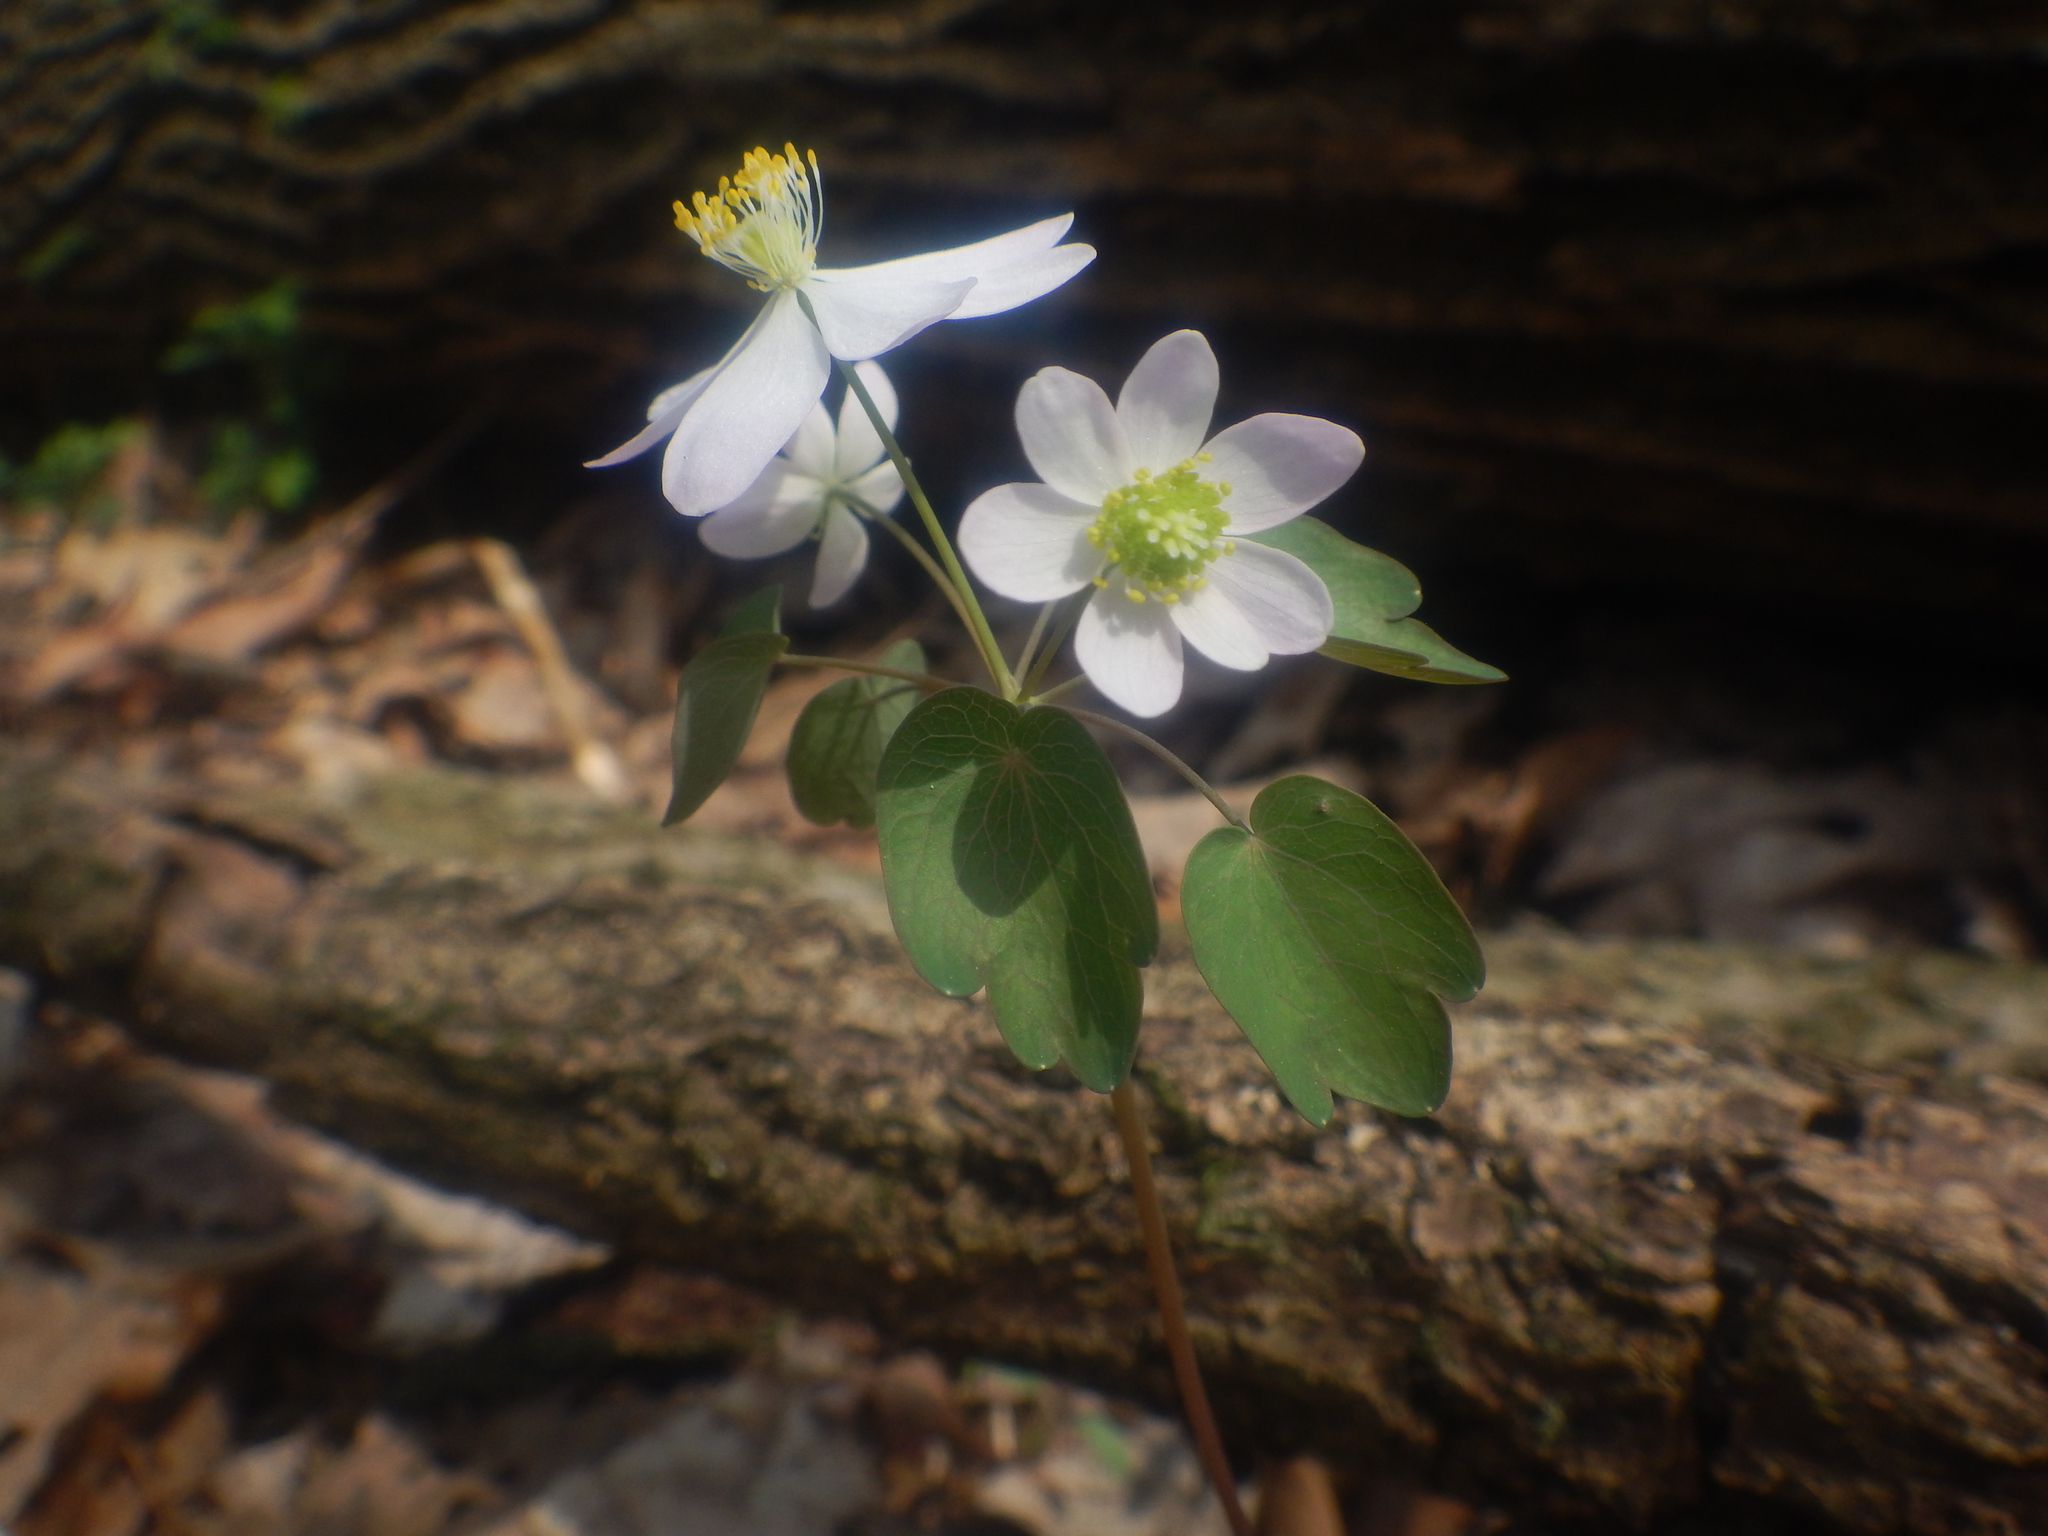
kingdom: Plantae
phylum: Tracheophyta
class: Magnoliopsida
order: Ranunculales
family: Ranunculaceae
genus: Thalictrum
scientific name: Thalictrum thalictroides
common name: Rue-anemone
